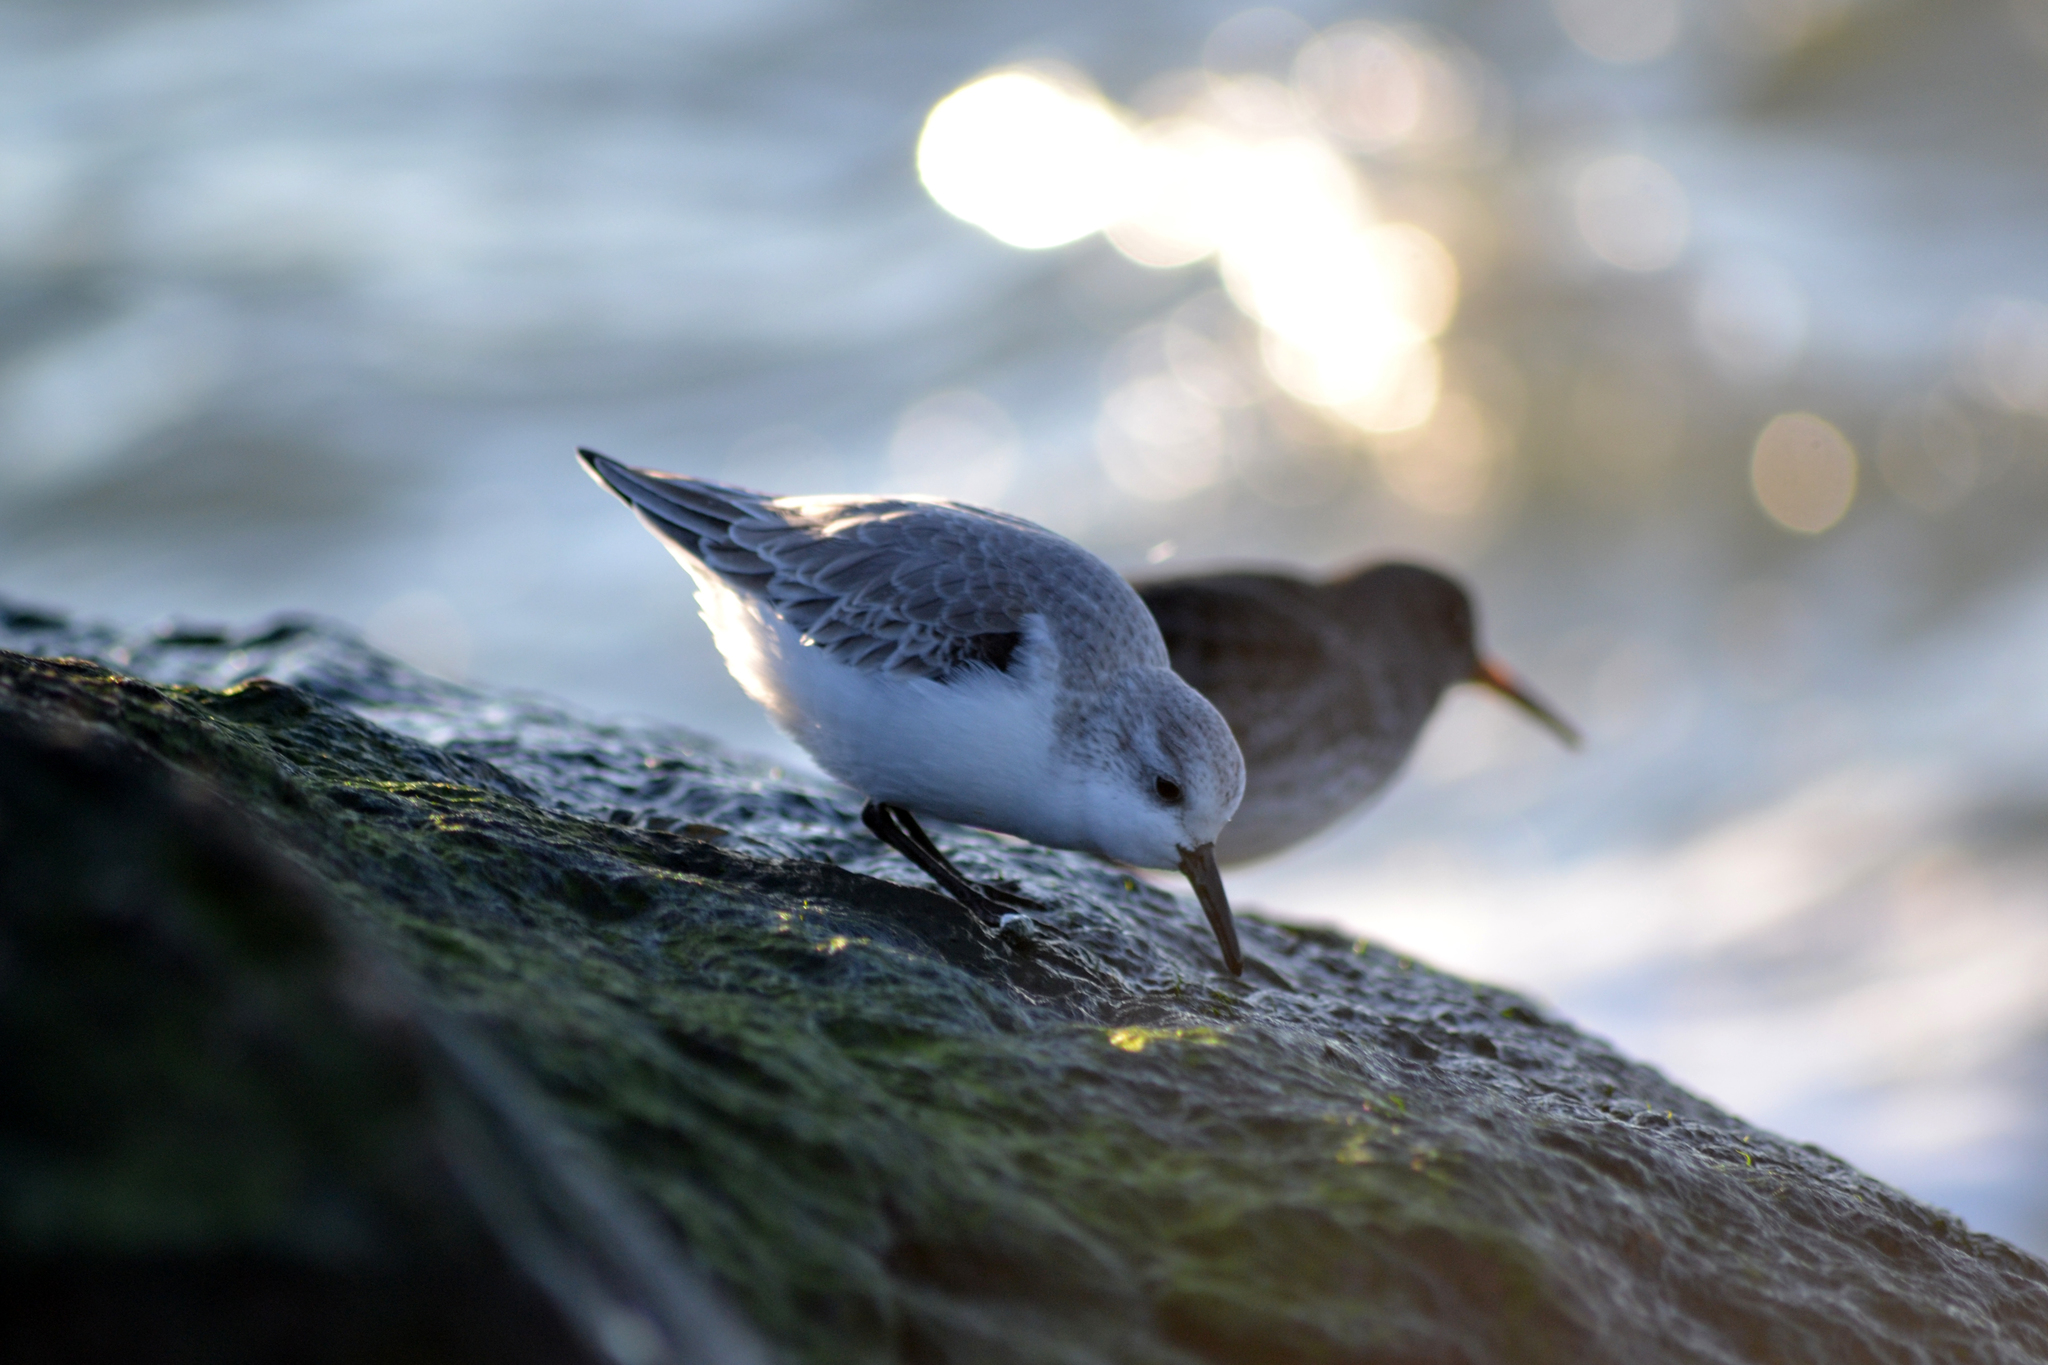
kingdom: Animalia
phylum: Chordata
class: Aves
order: Charadriiformes
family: Scolopacidae
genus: Calidris
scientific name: Calidris alba
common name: Sanderling
